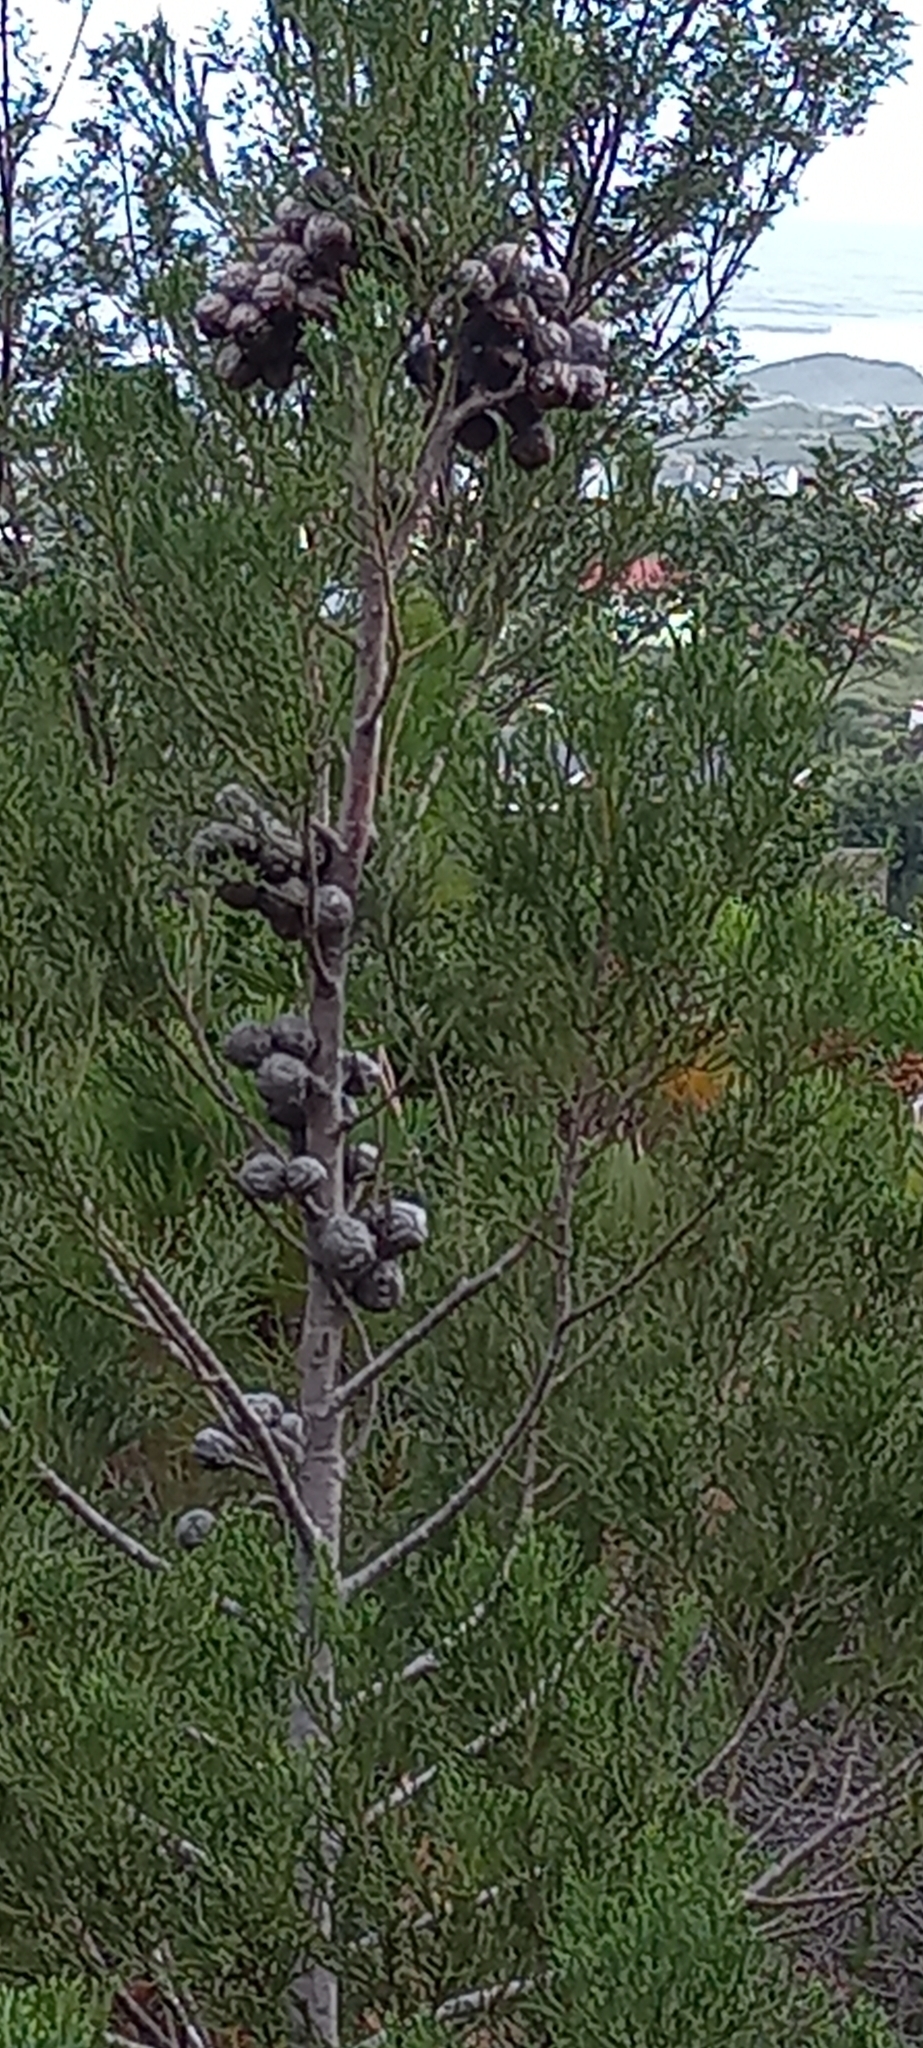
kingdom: Plantae
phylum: Tracheophyta
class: Pinopsida
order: Pinales
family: Cupressaceae
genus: Widdringtonia
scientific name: Widdringtonia nodiflora
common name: Cape cypress
